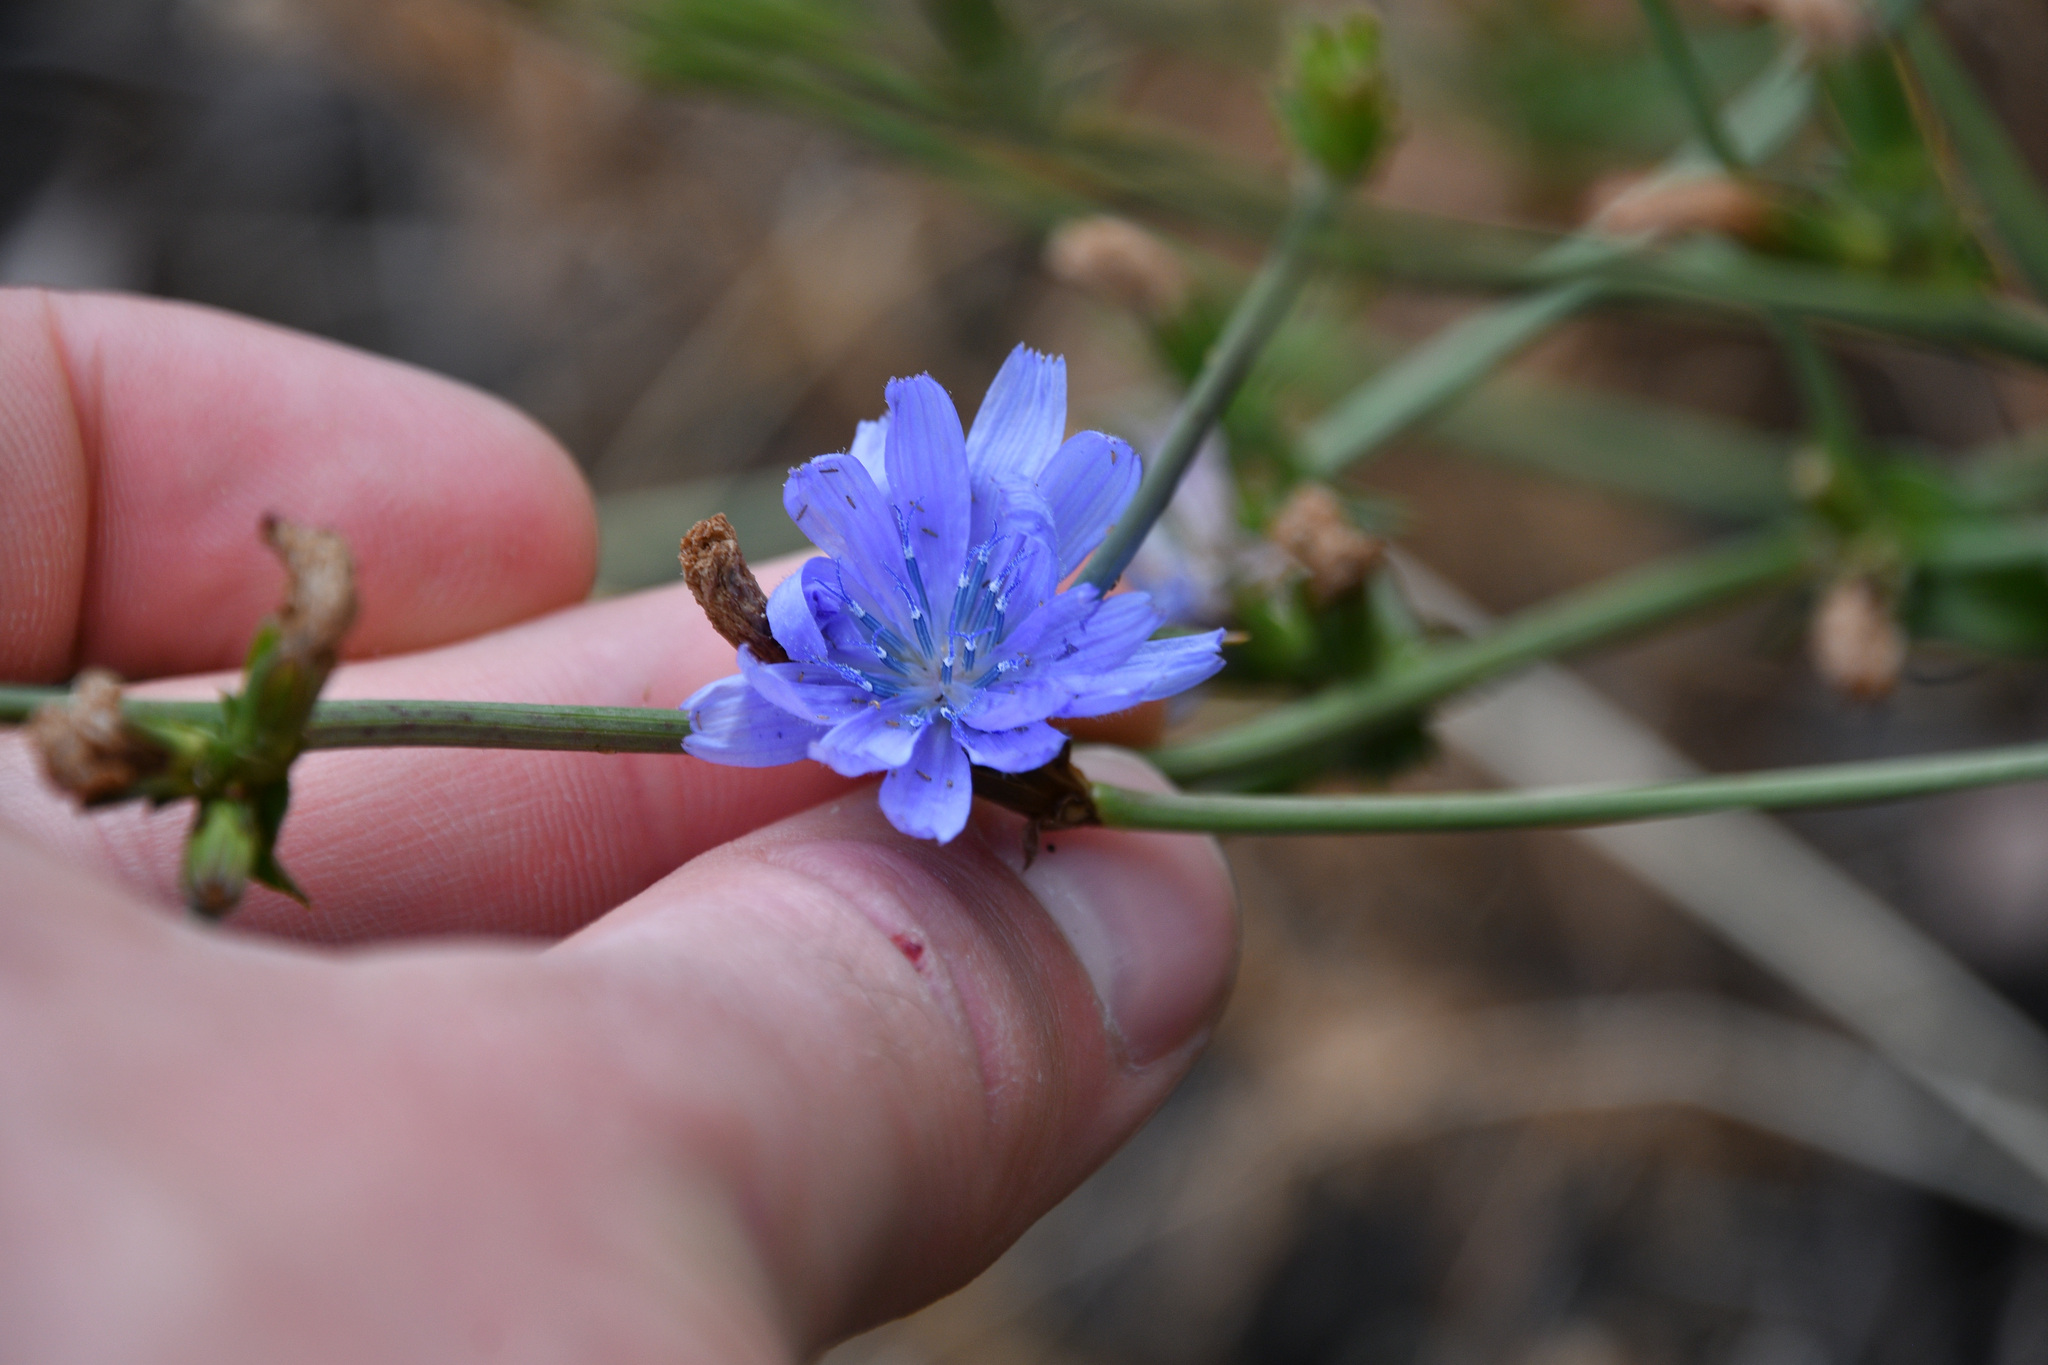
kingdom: Plantae
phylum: Tracheophyta
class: Magnoliopsida
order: Asterales
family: Asteraceae
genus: Cichorium
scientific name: Cichorium intybus
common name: Chicory
